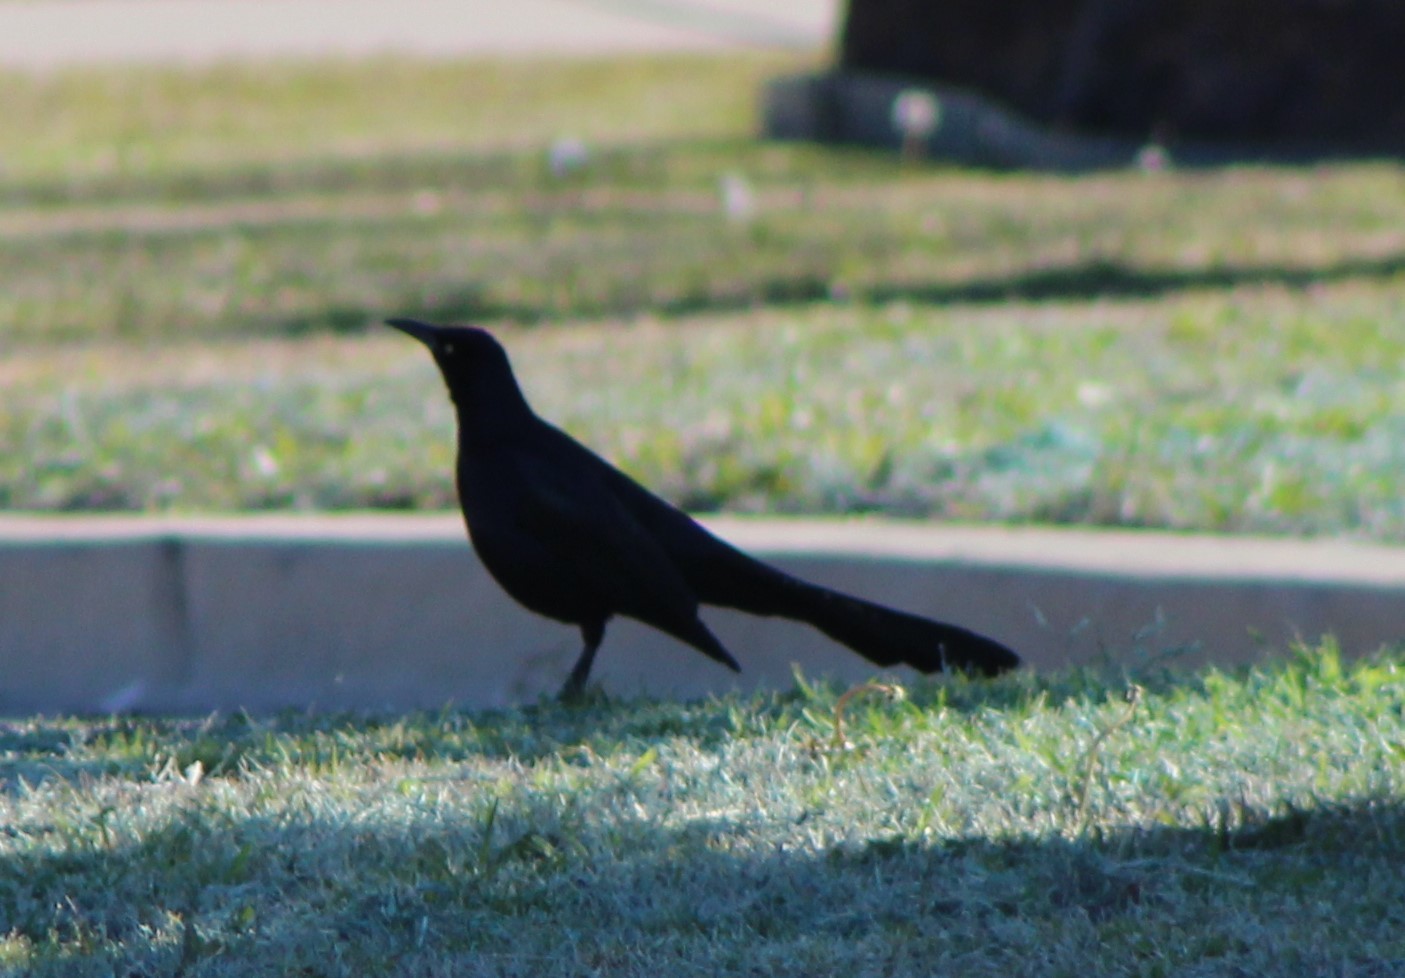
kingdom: Animalia
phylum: Chordata
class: Aves
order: Passeriformes
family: Icteridae
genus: Quiscalus
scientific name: Quiscalus mexicanus
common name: Great-tailed grackle
